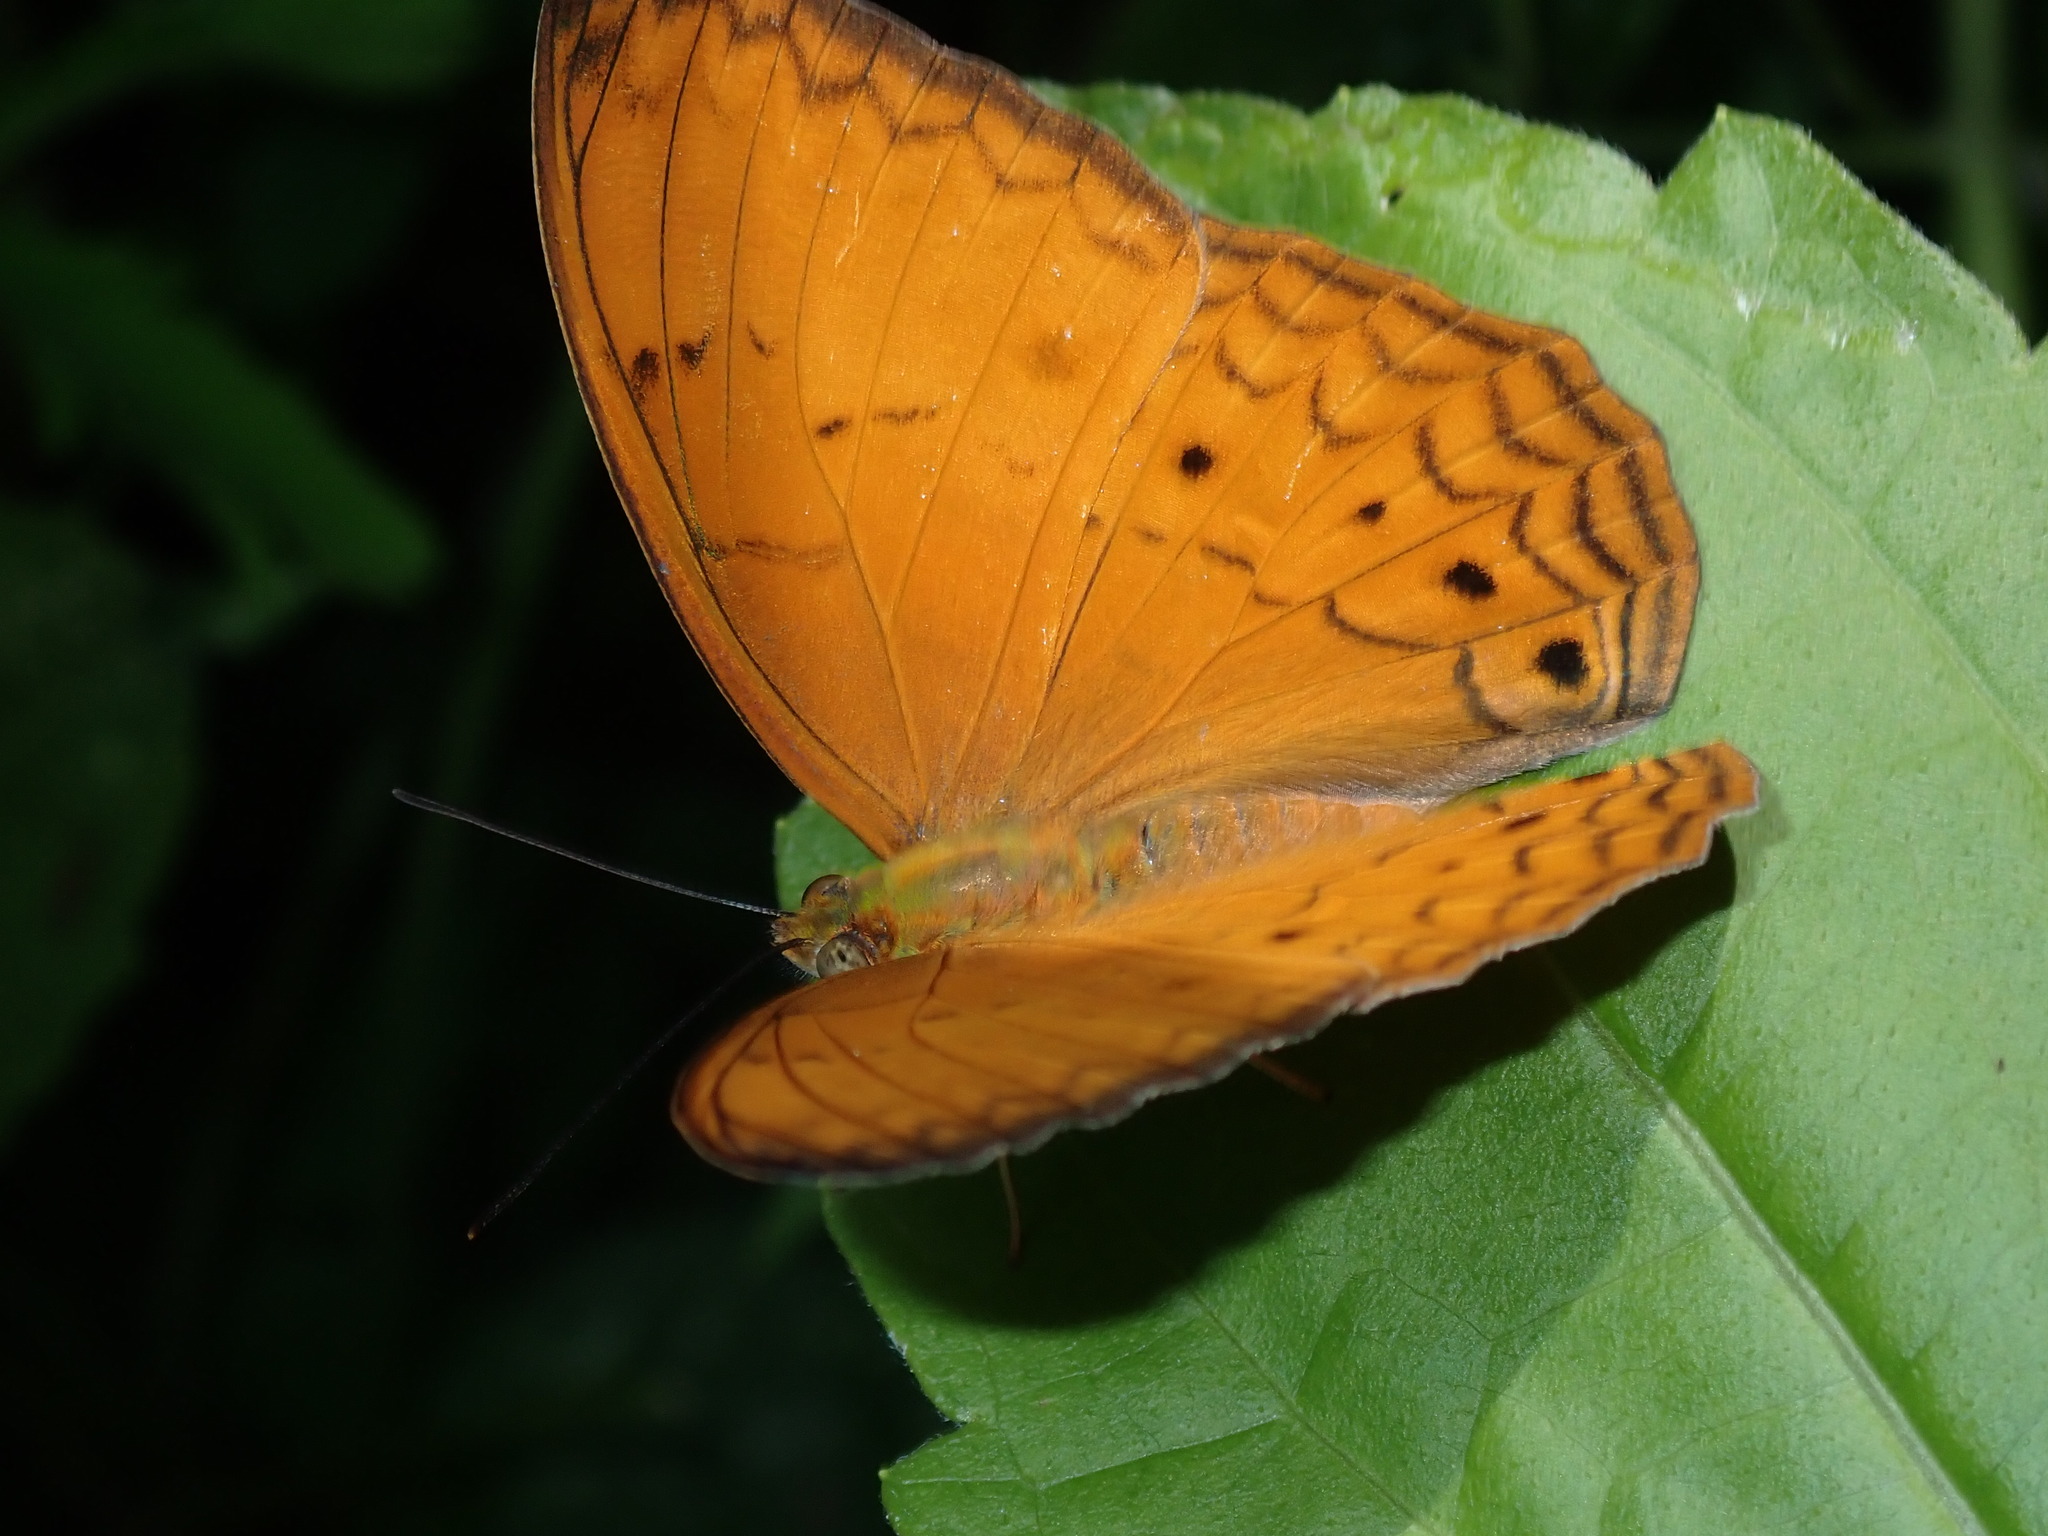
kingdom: Animalia
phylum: Arthropoda
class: Insecta
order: Lepidoptera
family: Nymphalidae
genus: Cirrochroa
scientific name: Cirrochroa tyche
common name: Common yeoman
